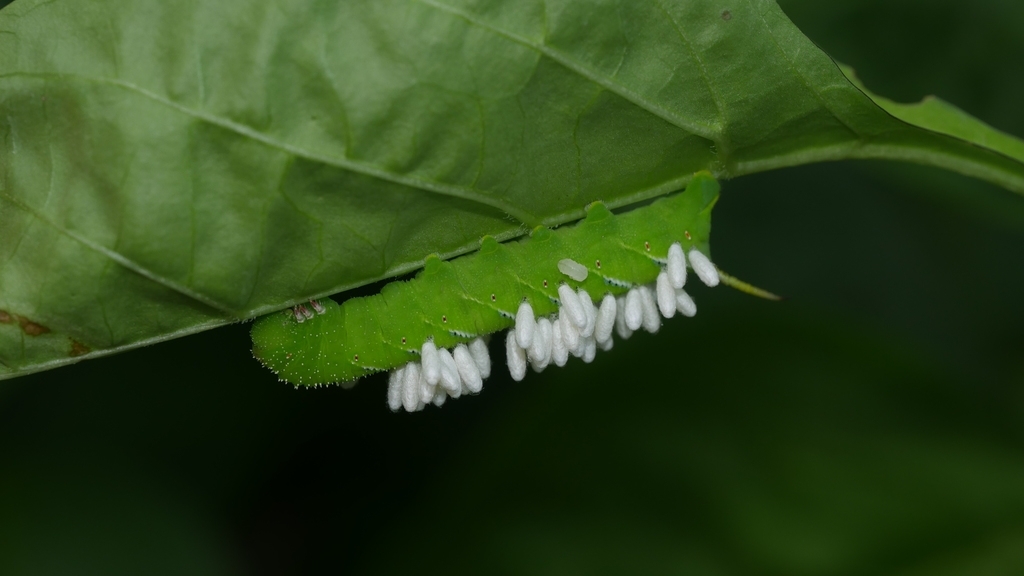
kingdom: Animalia
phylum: Arthropoda
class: Insecta
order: Lepidoptera
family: Sphingidae
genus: Manduca
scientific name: Manduca sexta
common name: Carolina sphinx
